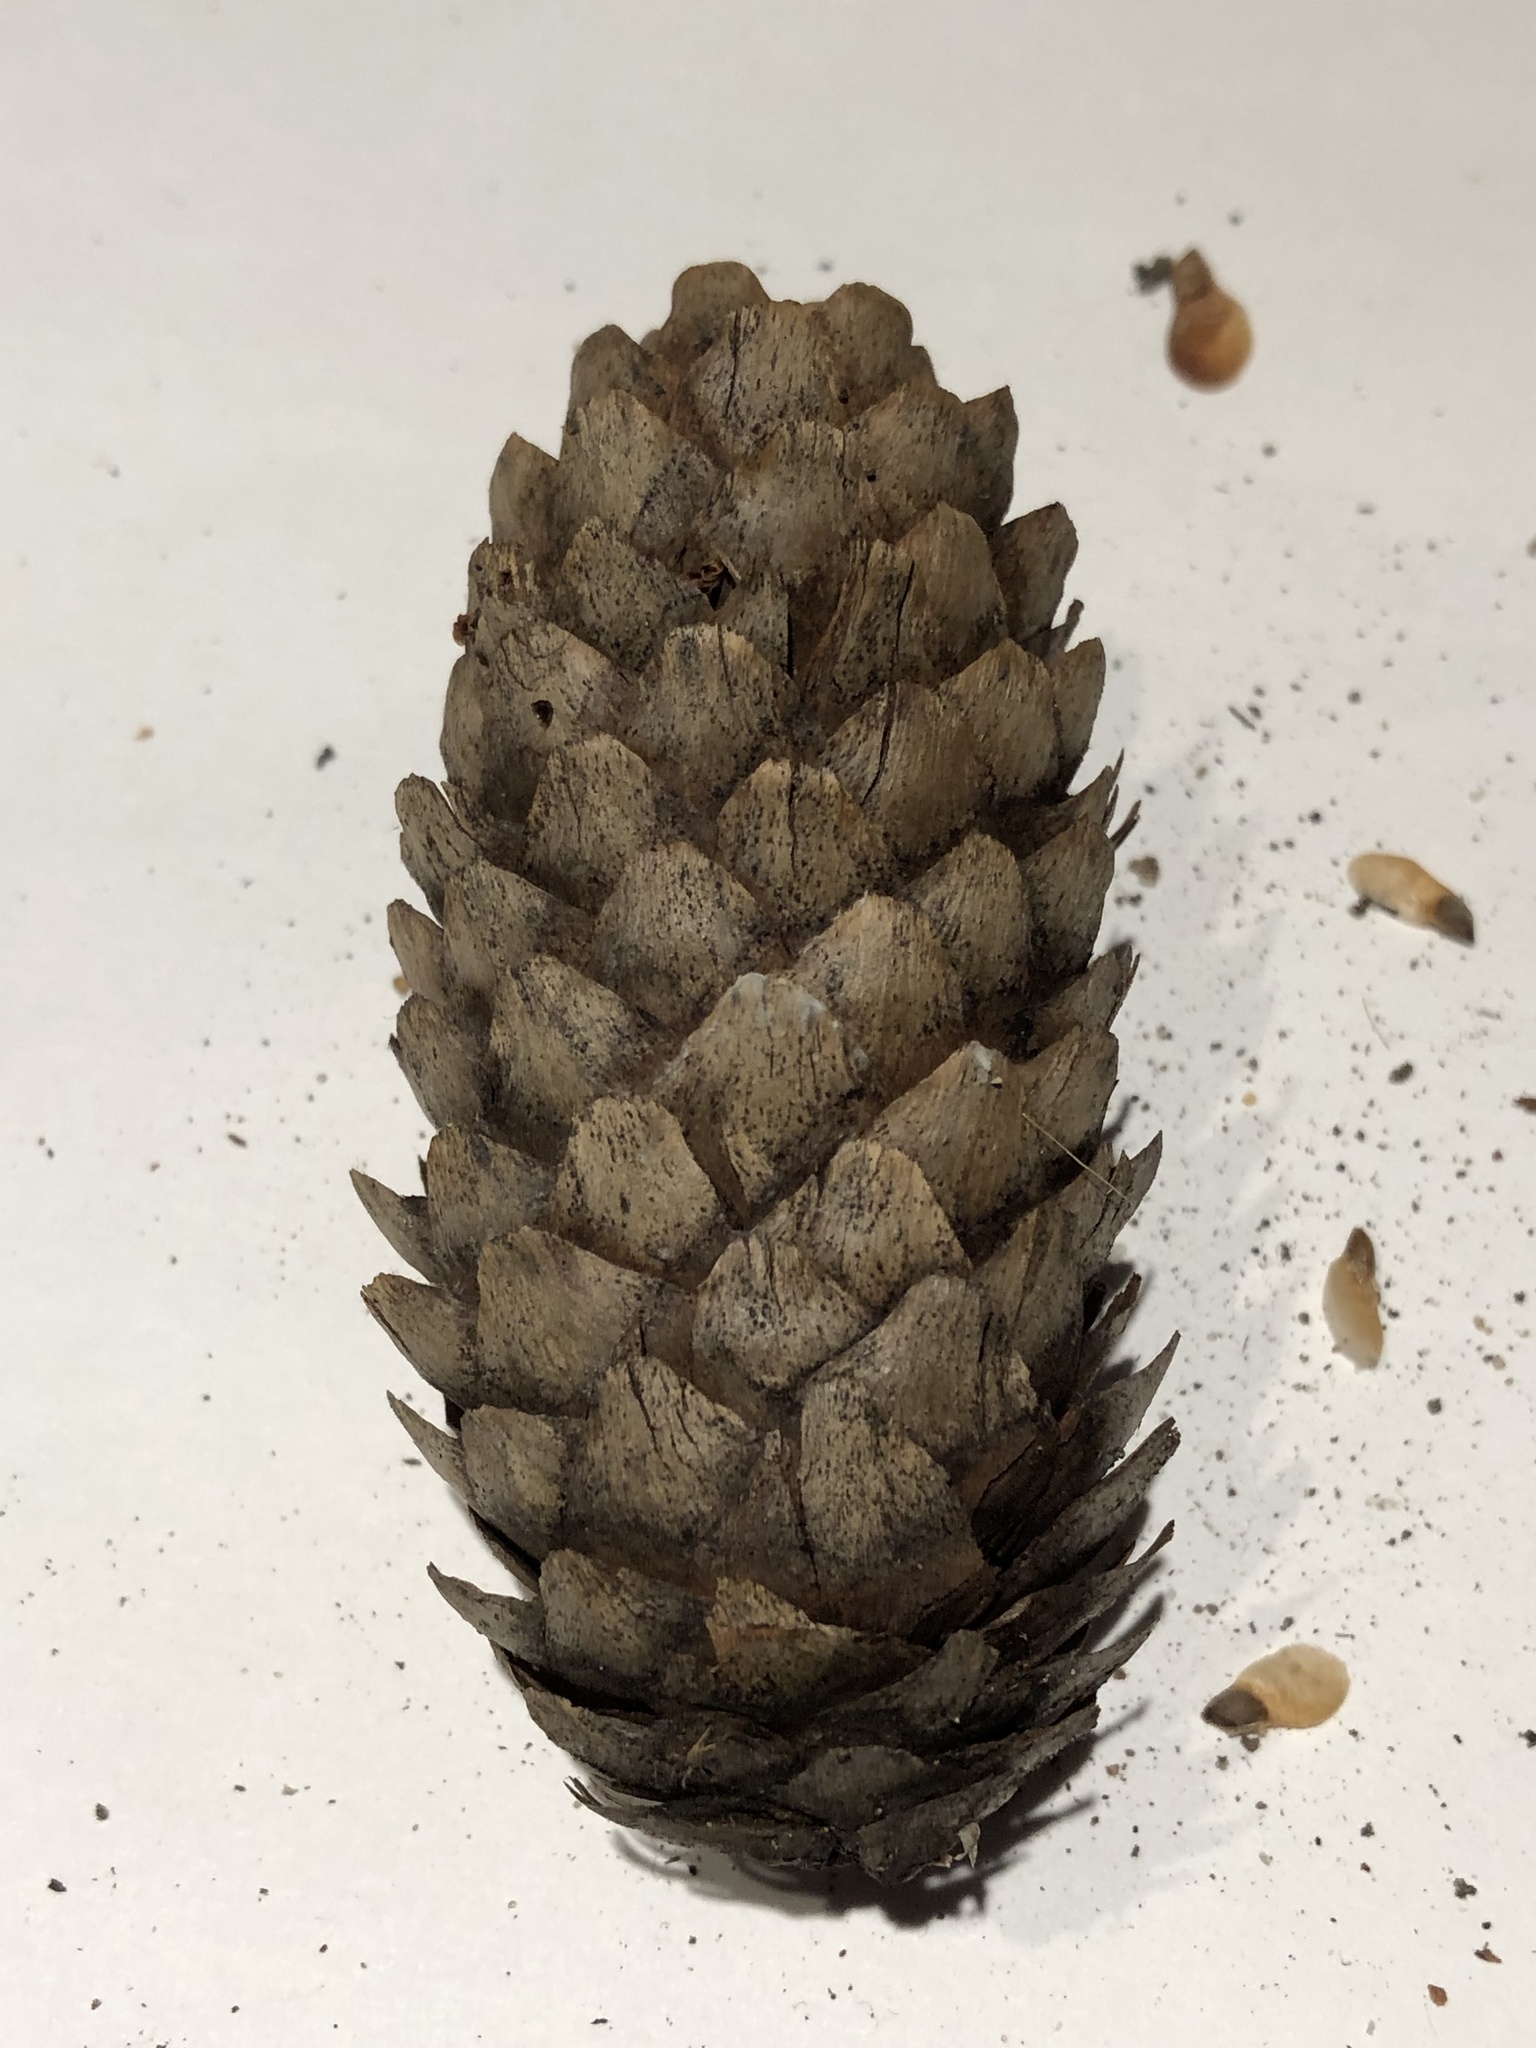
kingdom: Plantae
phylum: Tracheophyta
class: Pinopsida
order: Pinales
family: Pinaceae
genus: Picea
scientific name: Picea abies
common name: Norway spruce
